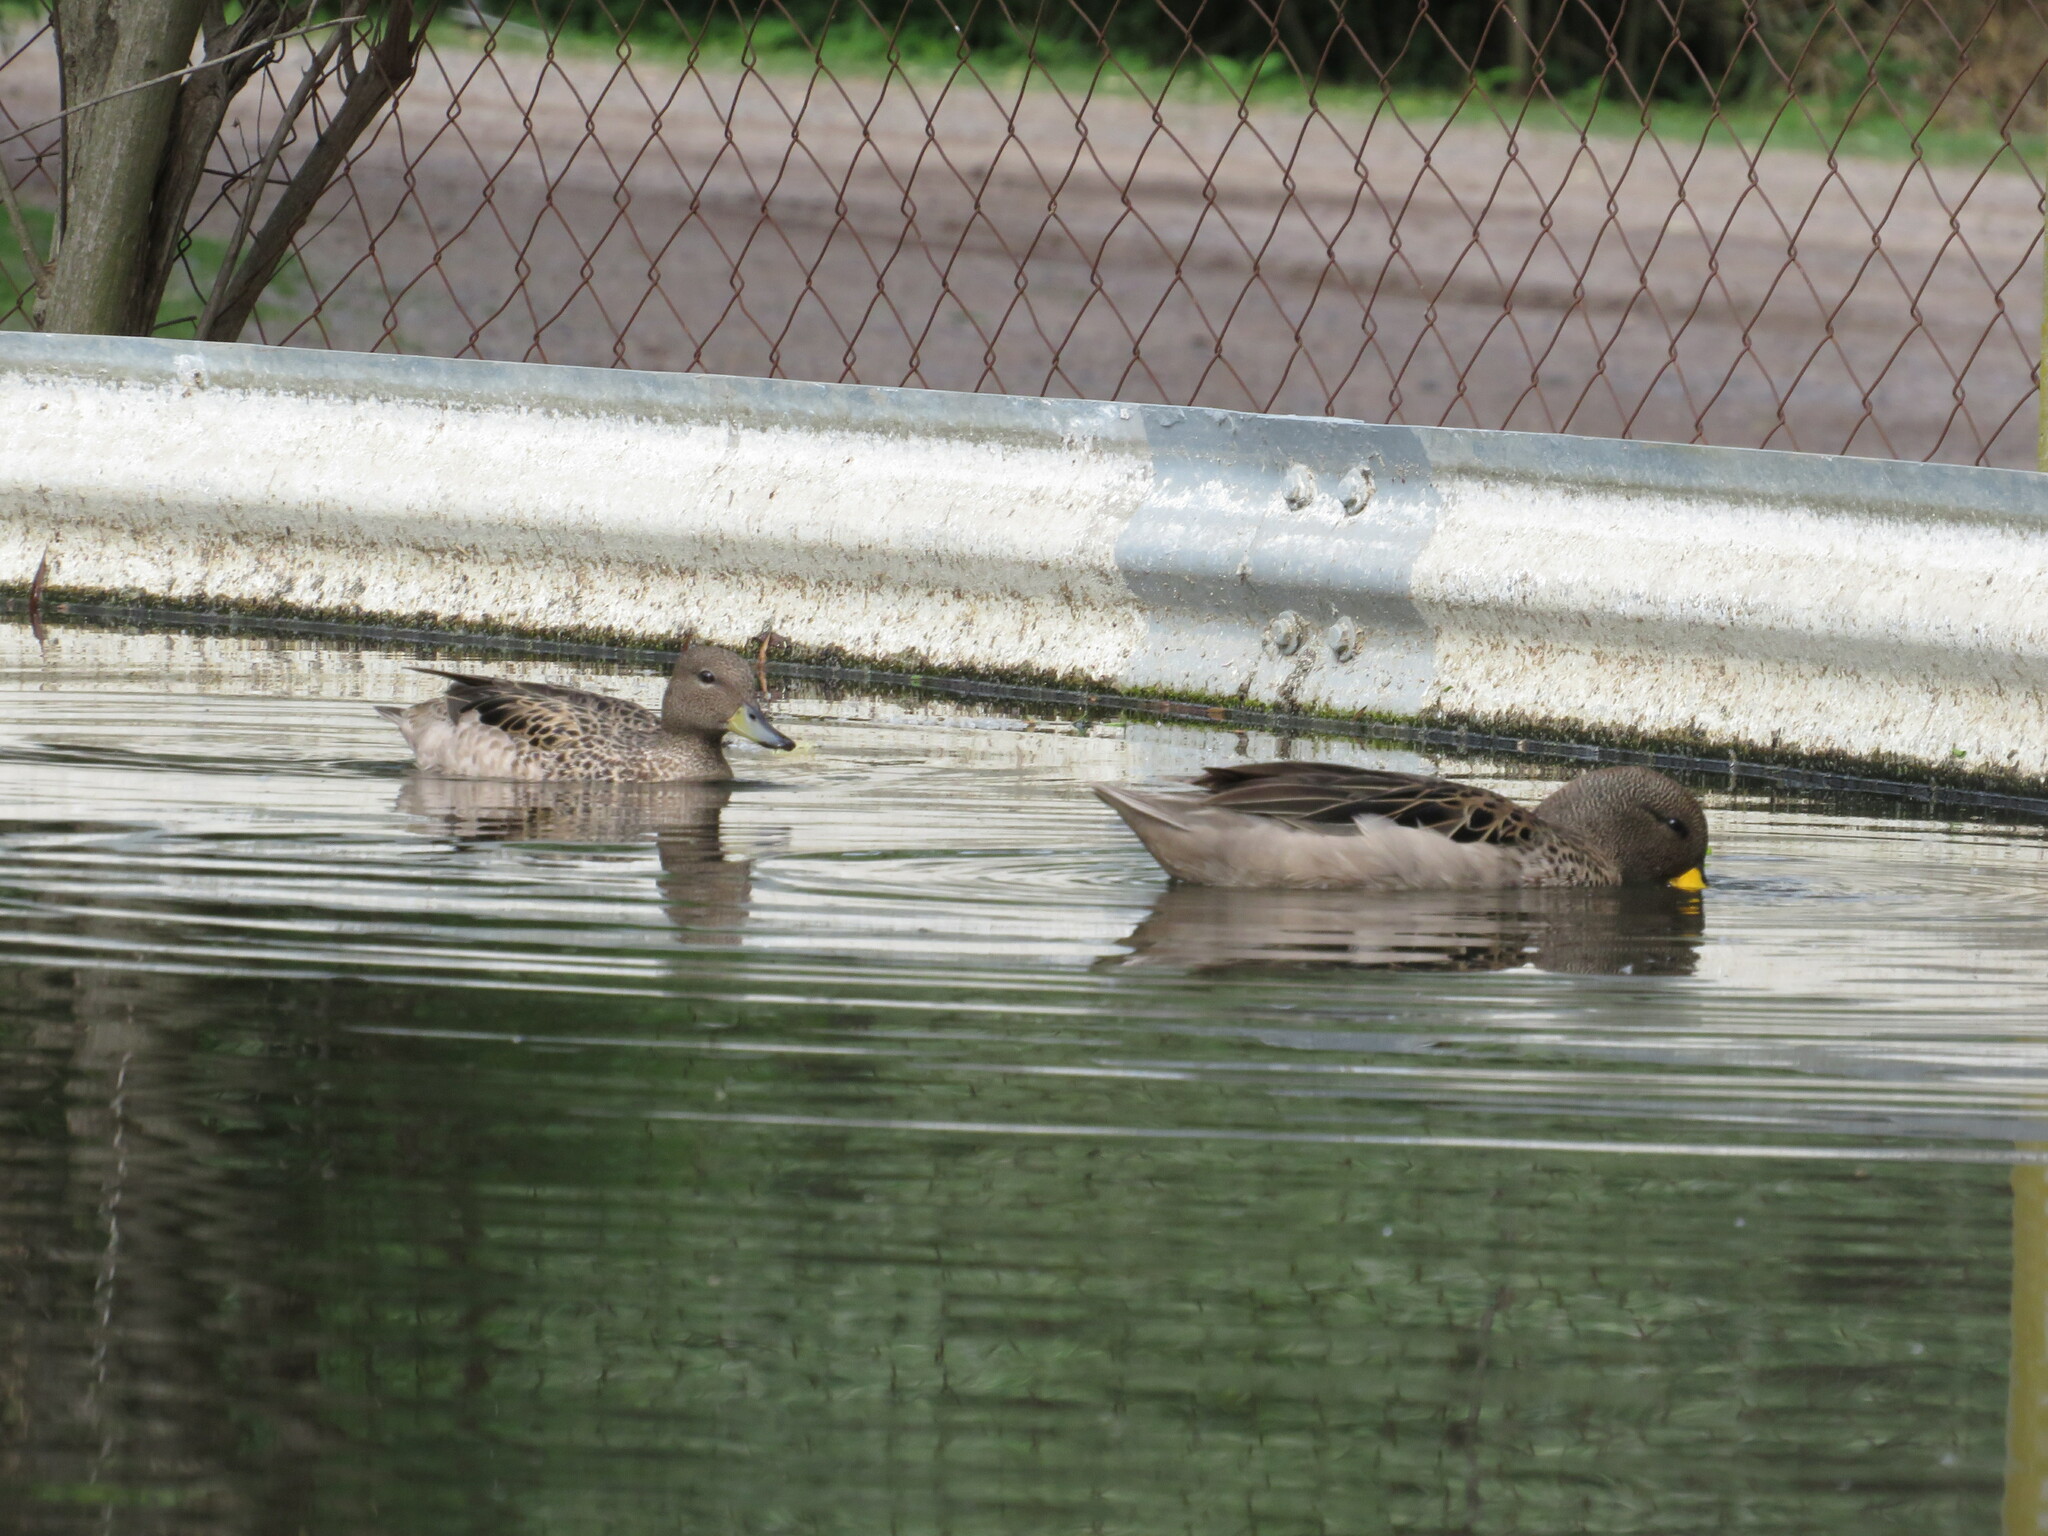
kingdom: Animalia
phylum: Chordata
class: Aves
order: Anseriformes
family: Anatidae
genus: Anas
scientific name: Anas flavirostris
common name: Yellow-billed teal
